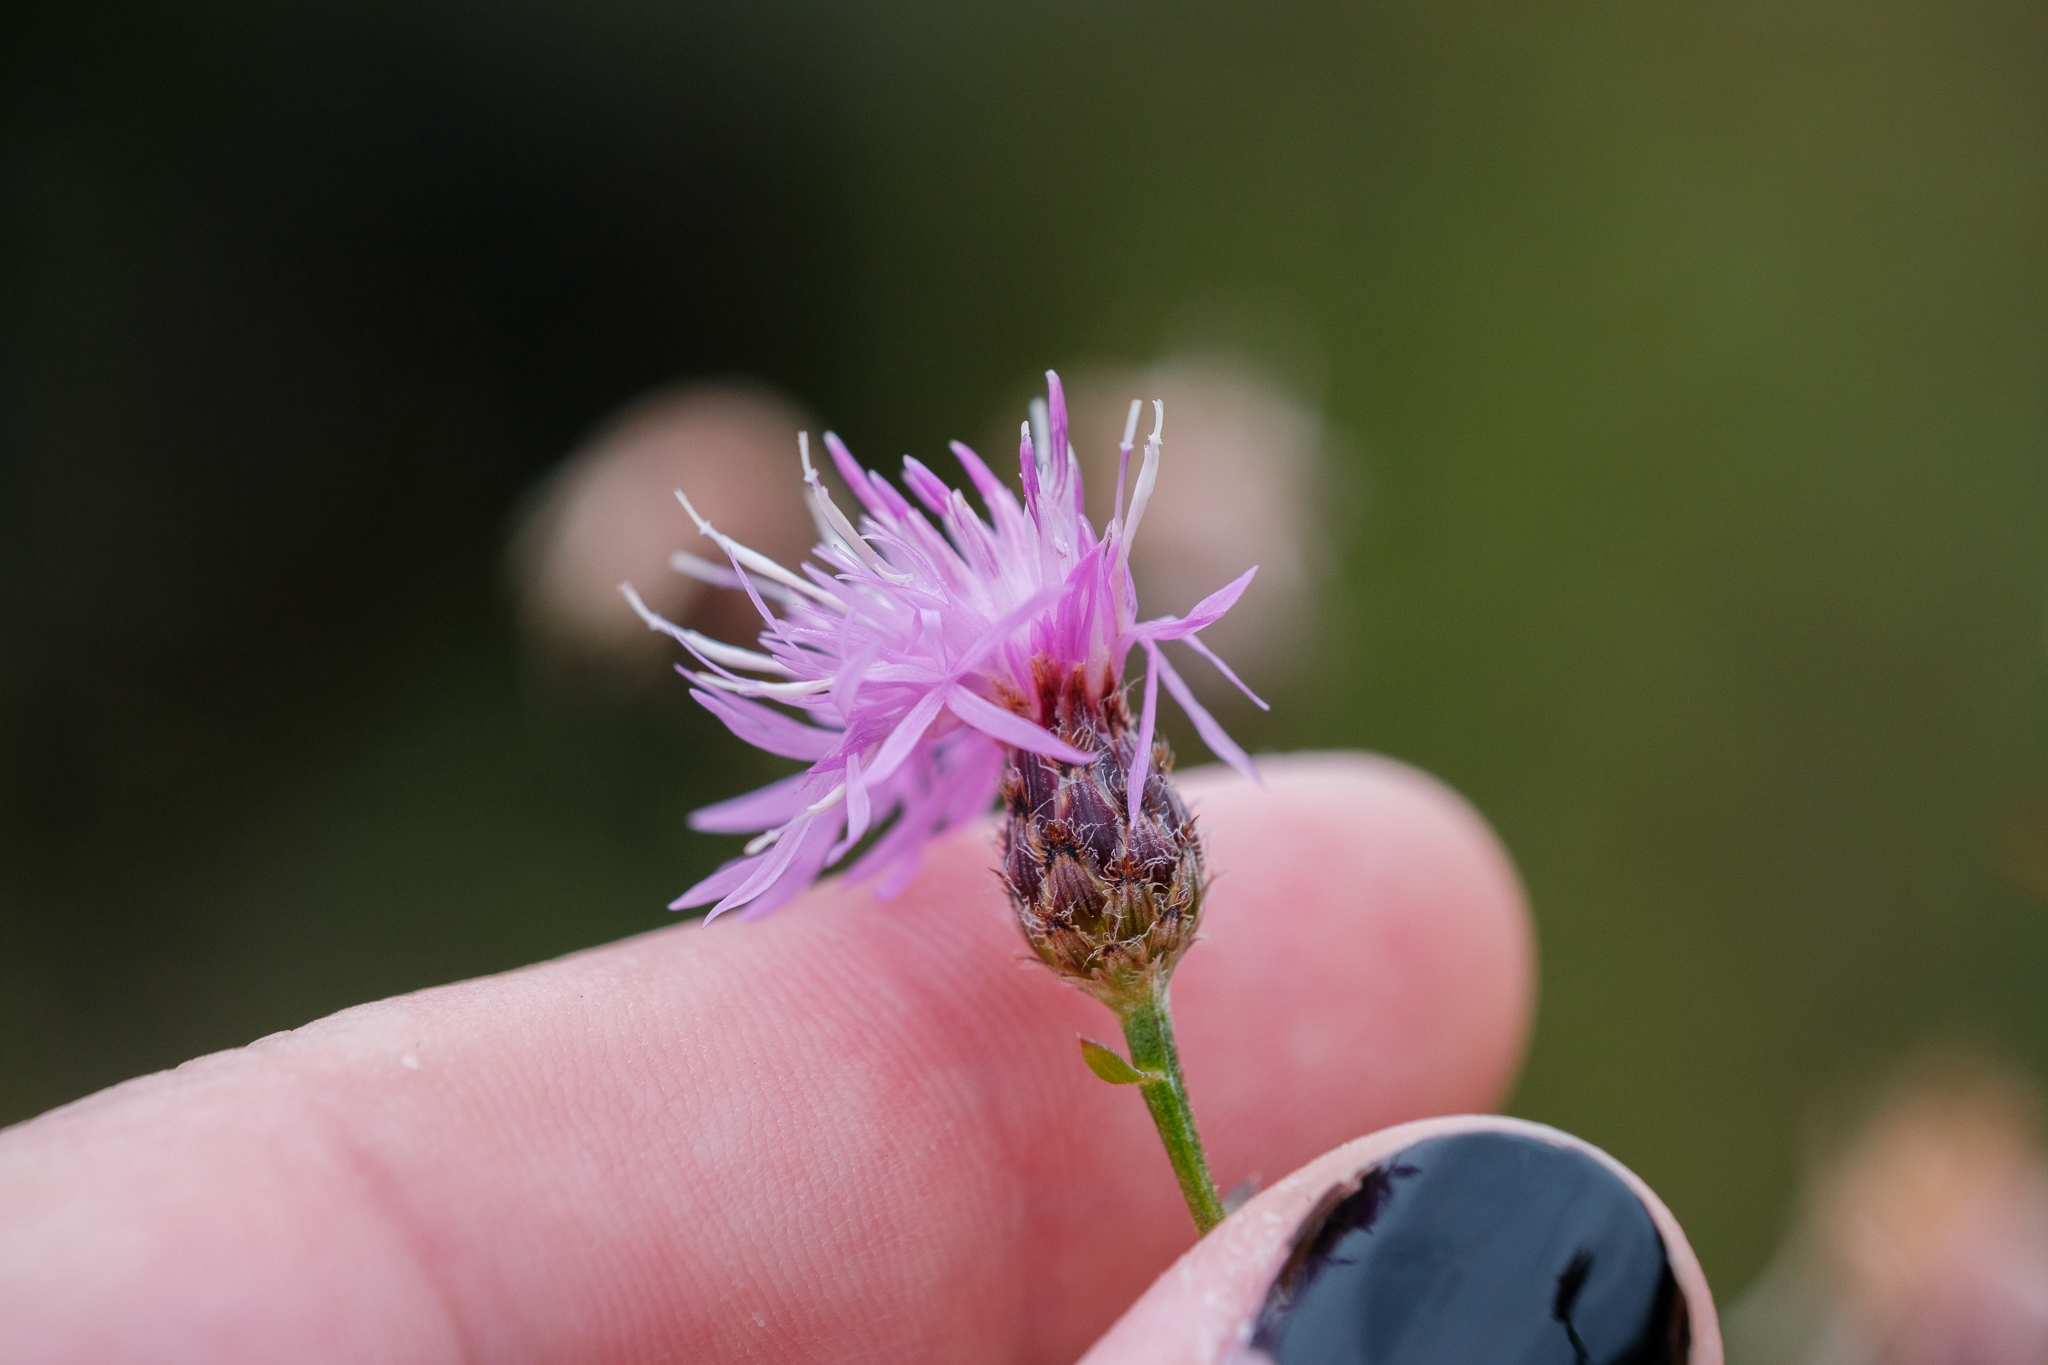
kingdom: Plantae
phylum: Tracheophyta
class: Magnoliopsida
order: Asterales
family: Asteraceae
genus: Centaurea
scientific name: Centaurea stoebe
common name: Spotted knapweed
